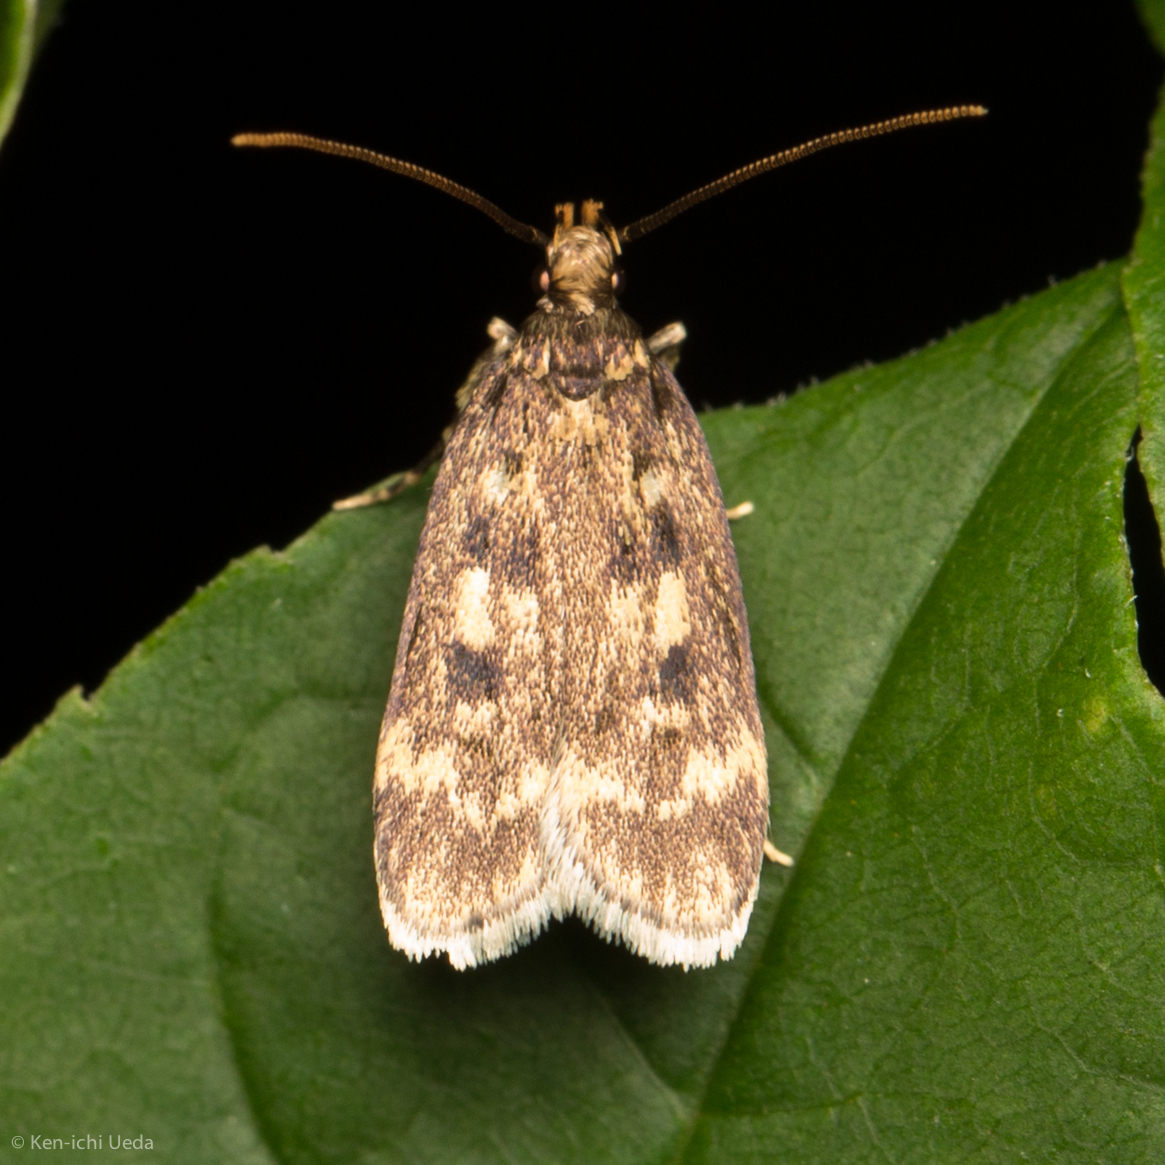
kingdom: Animalia
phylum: Arthropoda
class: Insecta
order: Lepidoptera
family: Lecithoceridae
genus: Martyringa
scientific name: Martyringa latipennis
